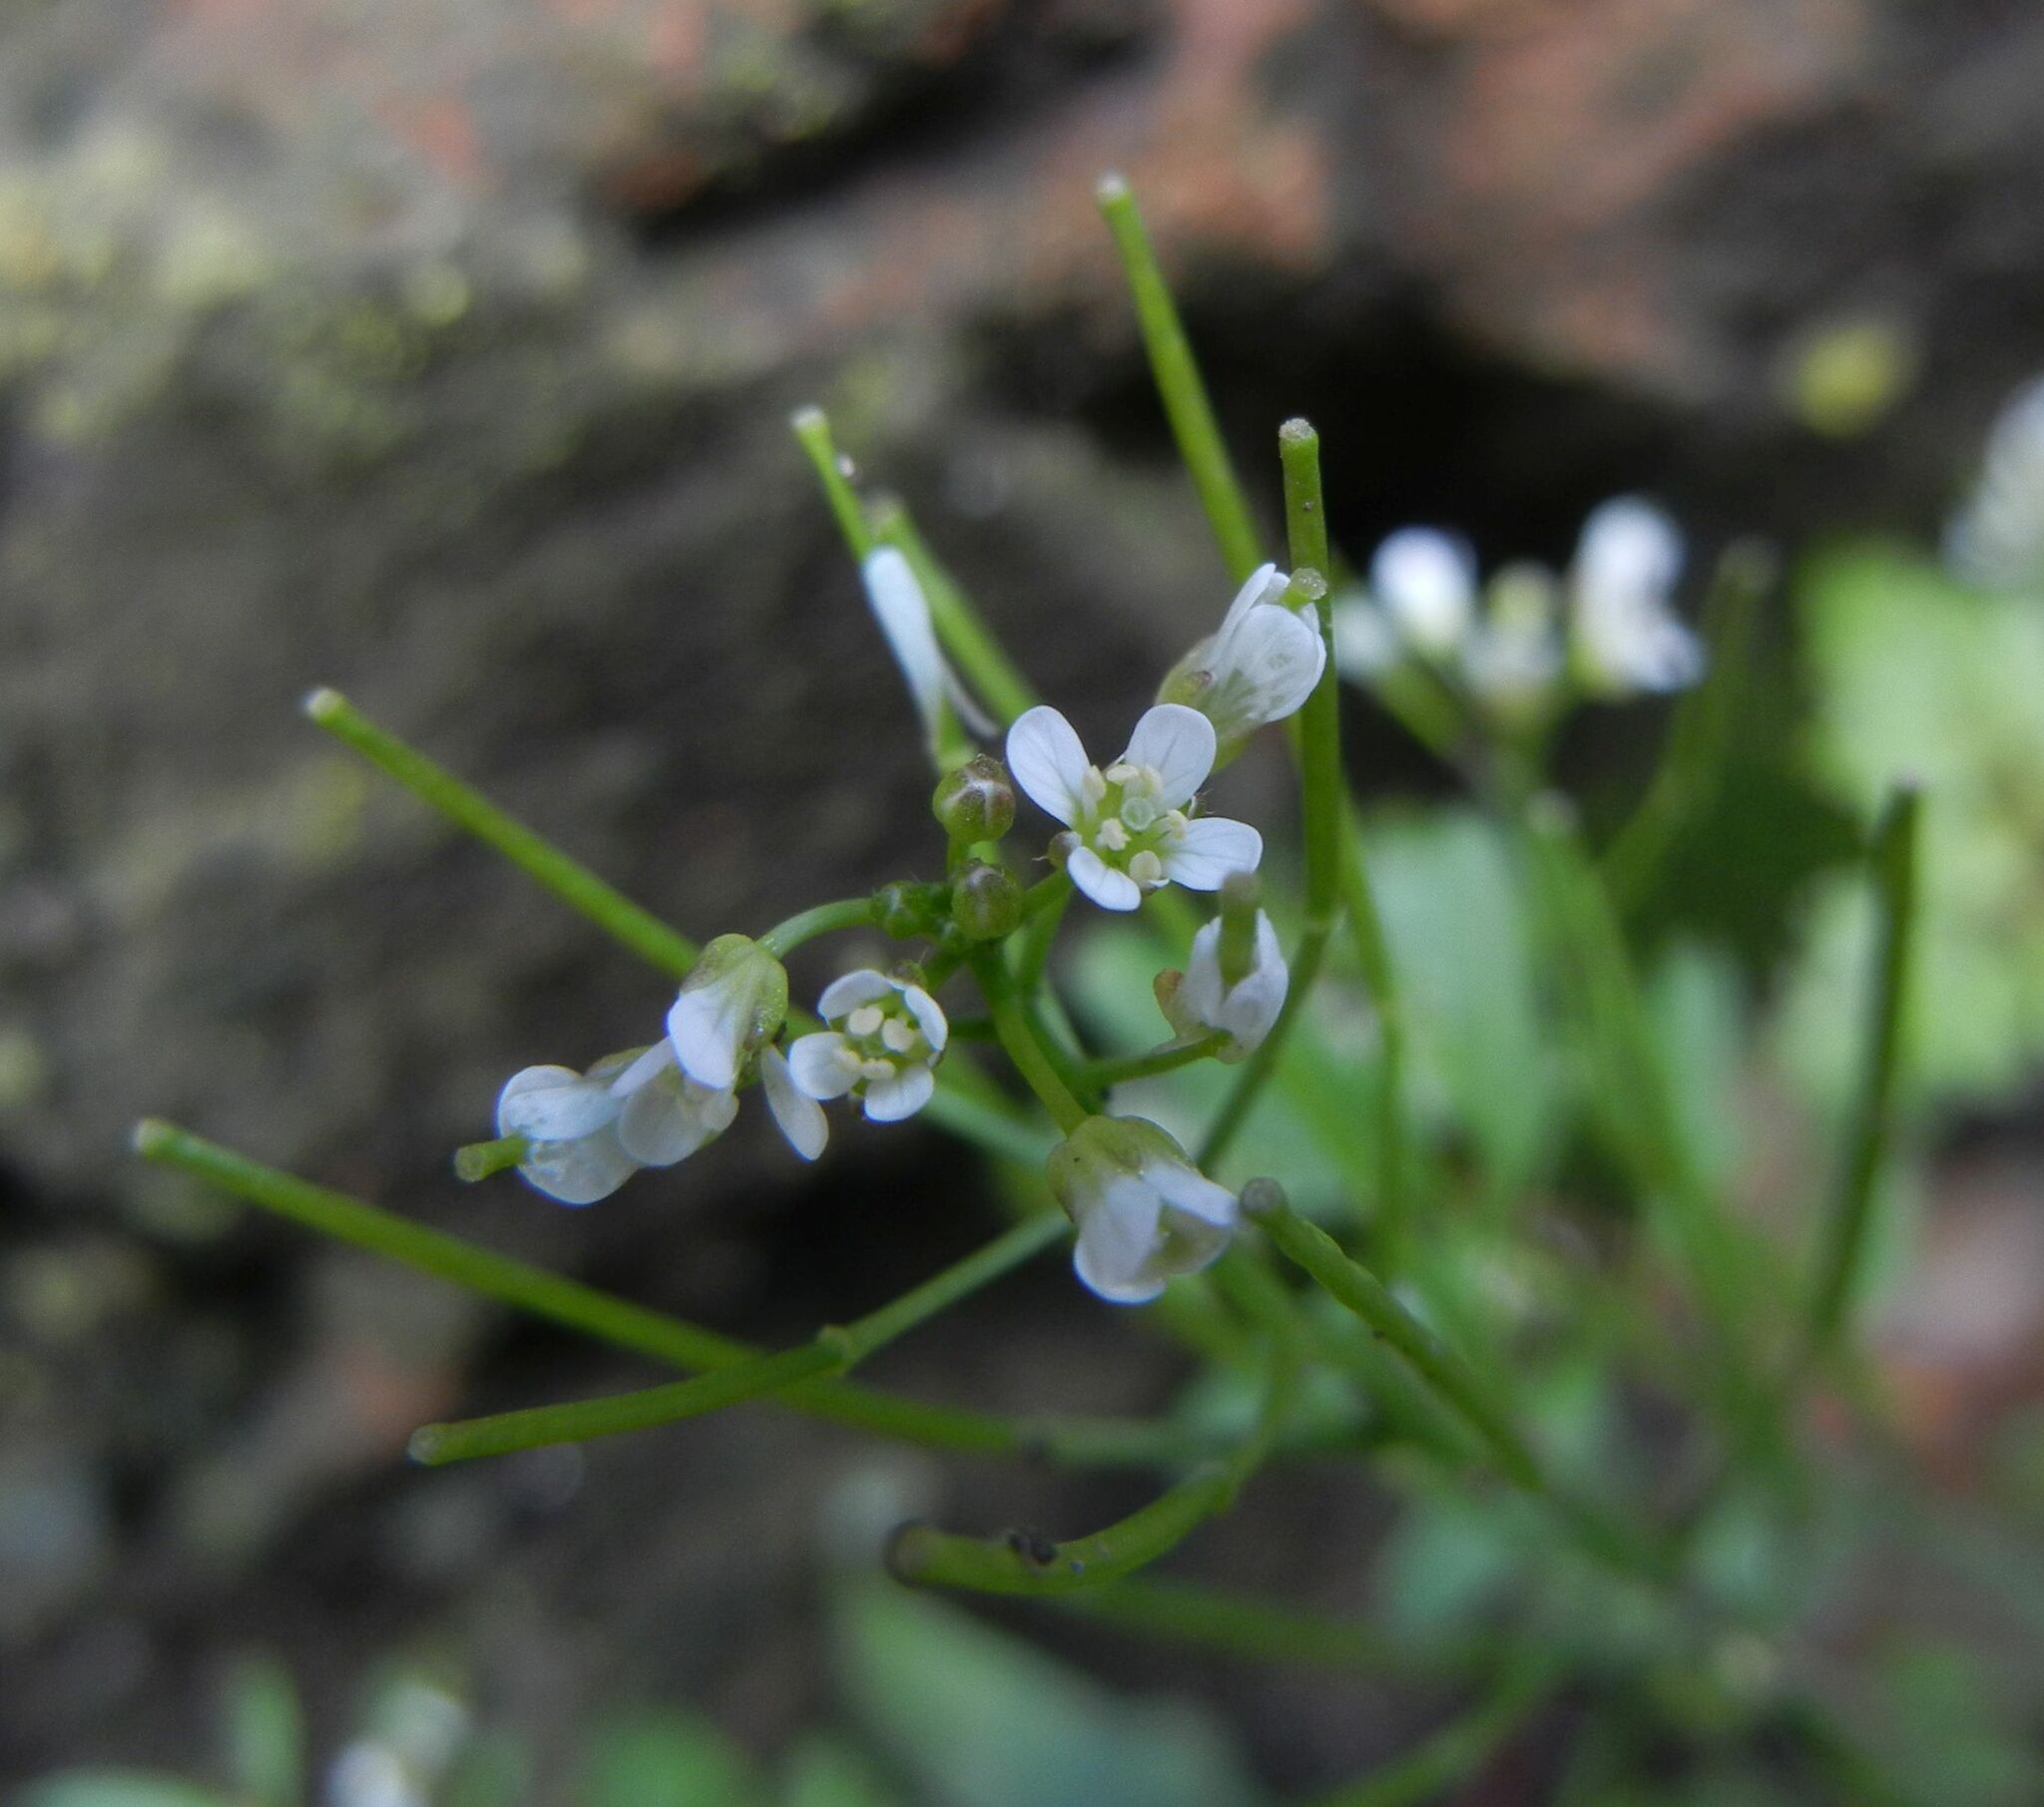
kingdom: Plantae
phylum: Tracheophyta
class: Magnoliopsida
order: Brassicales
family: Brassicaceae
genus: Cardamine
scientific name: Cardamine flexuosa
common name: Woodland bittercress
